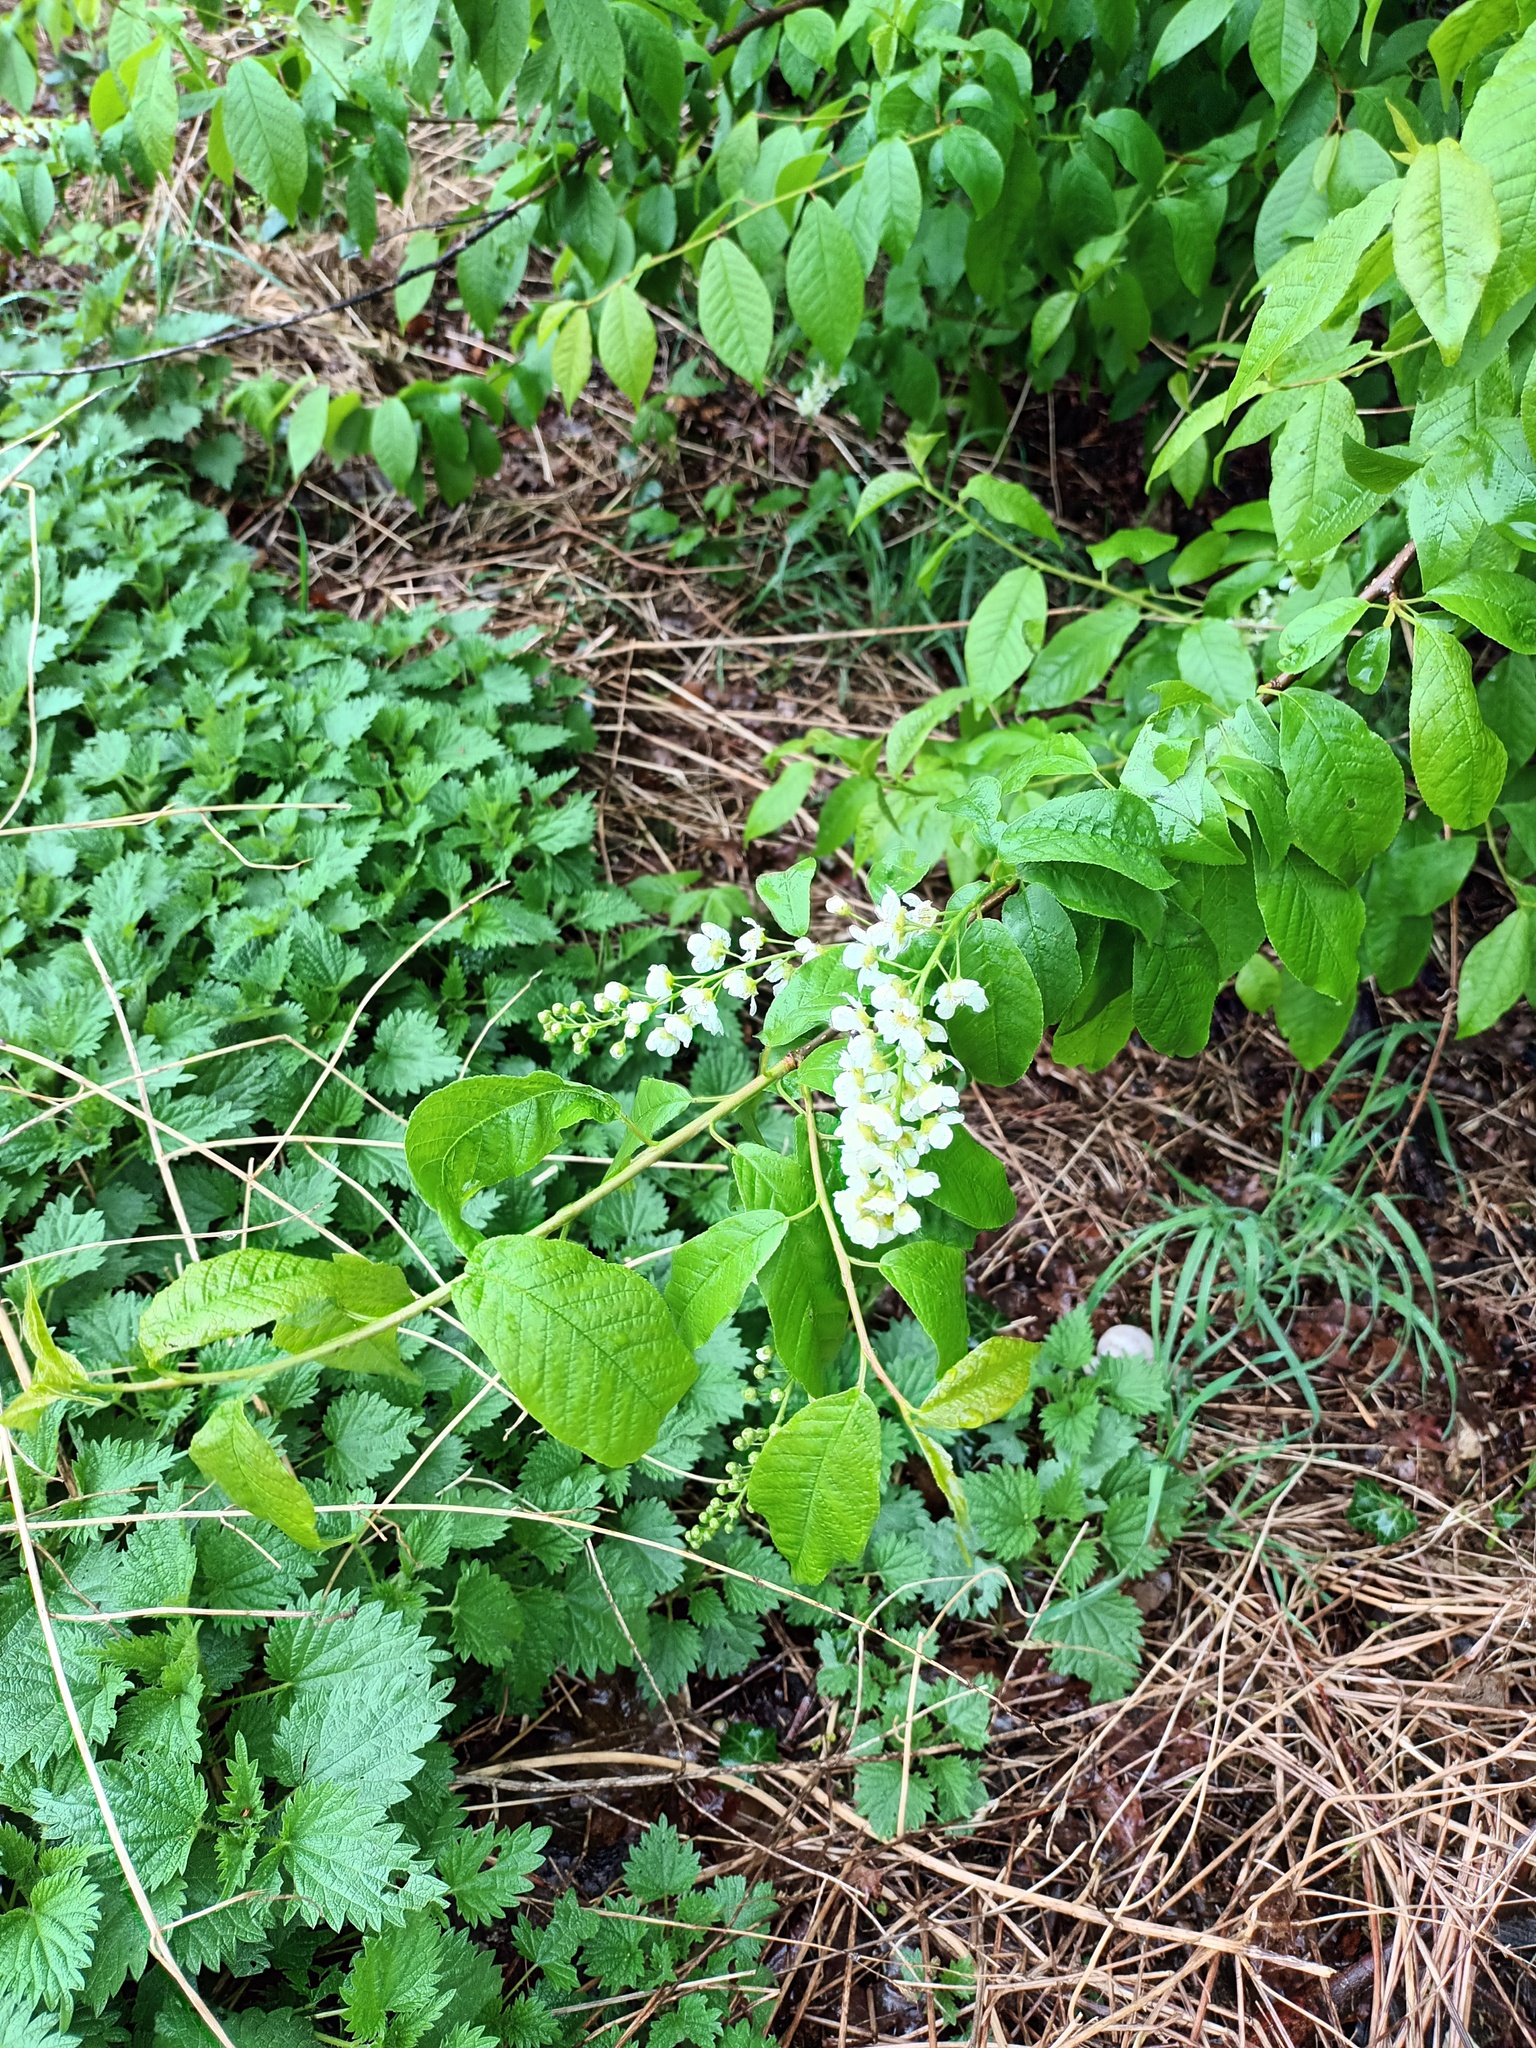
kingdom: Plantae
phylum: Tracheophyta
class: Magnoliopsida
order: Rosales
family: Rosaceae
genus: Prunus
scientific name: Prunus padus
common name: Bird cherry
